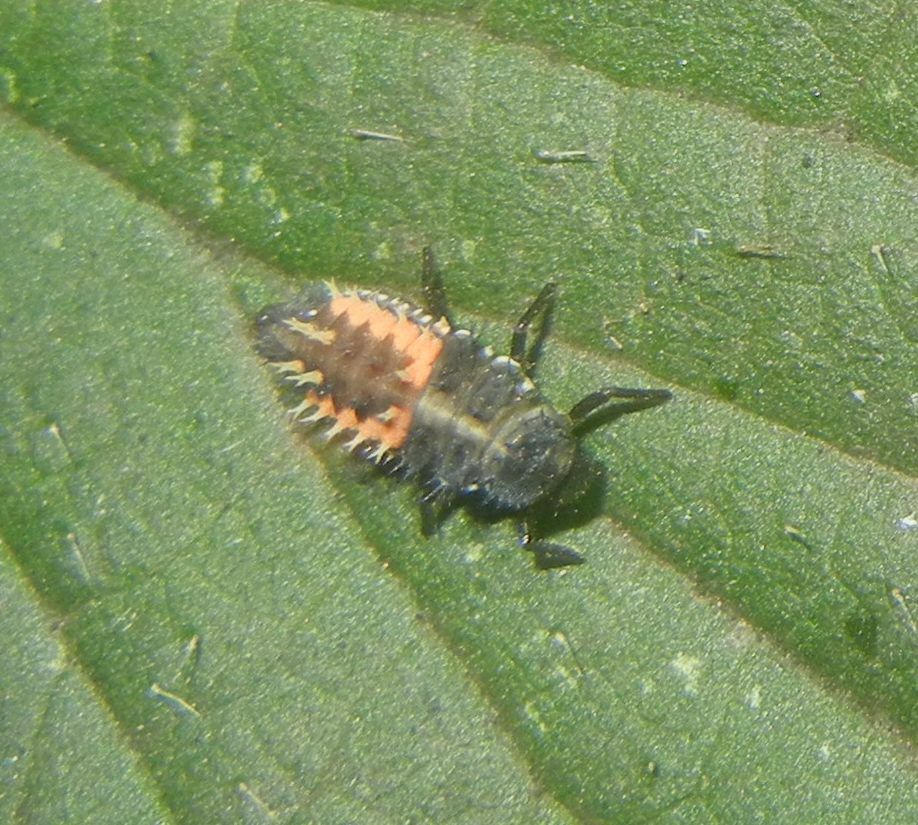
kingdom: Animalia
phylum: Arthropoda
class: Insecta
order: Coleoptera
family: Coccinellidae
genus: Harmonia
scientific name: Harmonia axyridis
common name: Harlequin ladybird
